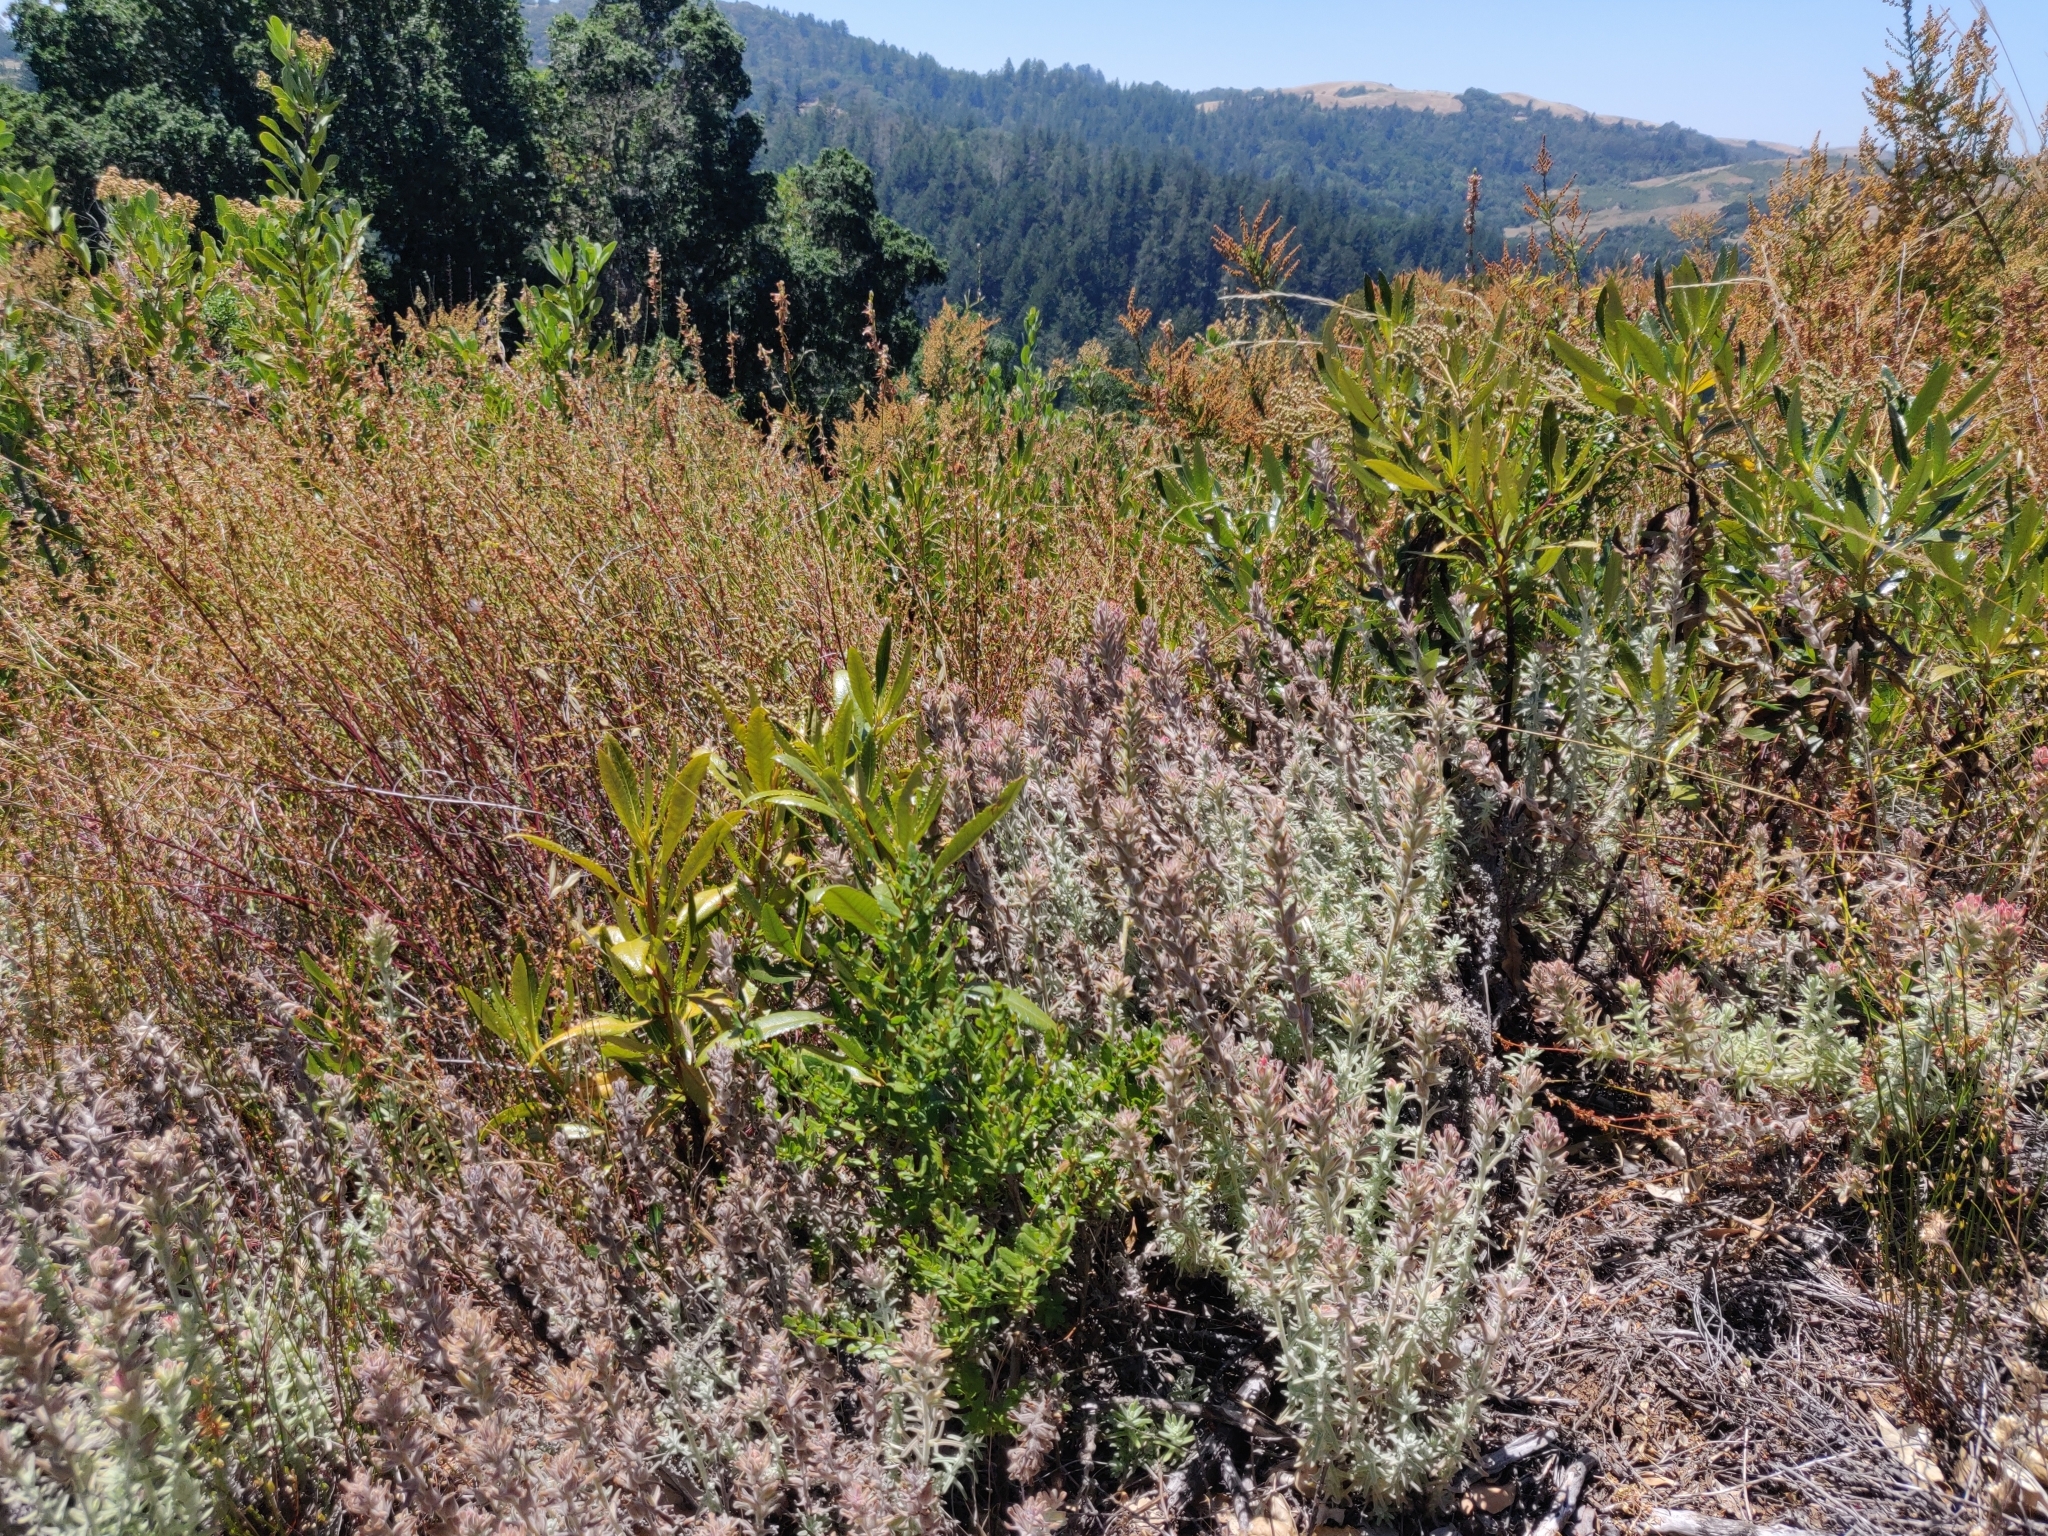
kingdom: Plantae
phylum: Tracheophyta
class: Magnoliopsida
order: Lamiales
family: Orobanchaceae
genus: Castilleja
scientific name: Castilleja foliolosa
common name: Woolly indian paintbrush
